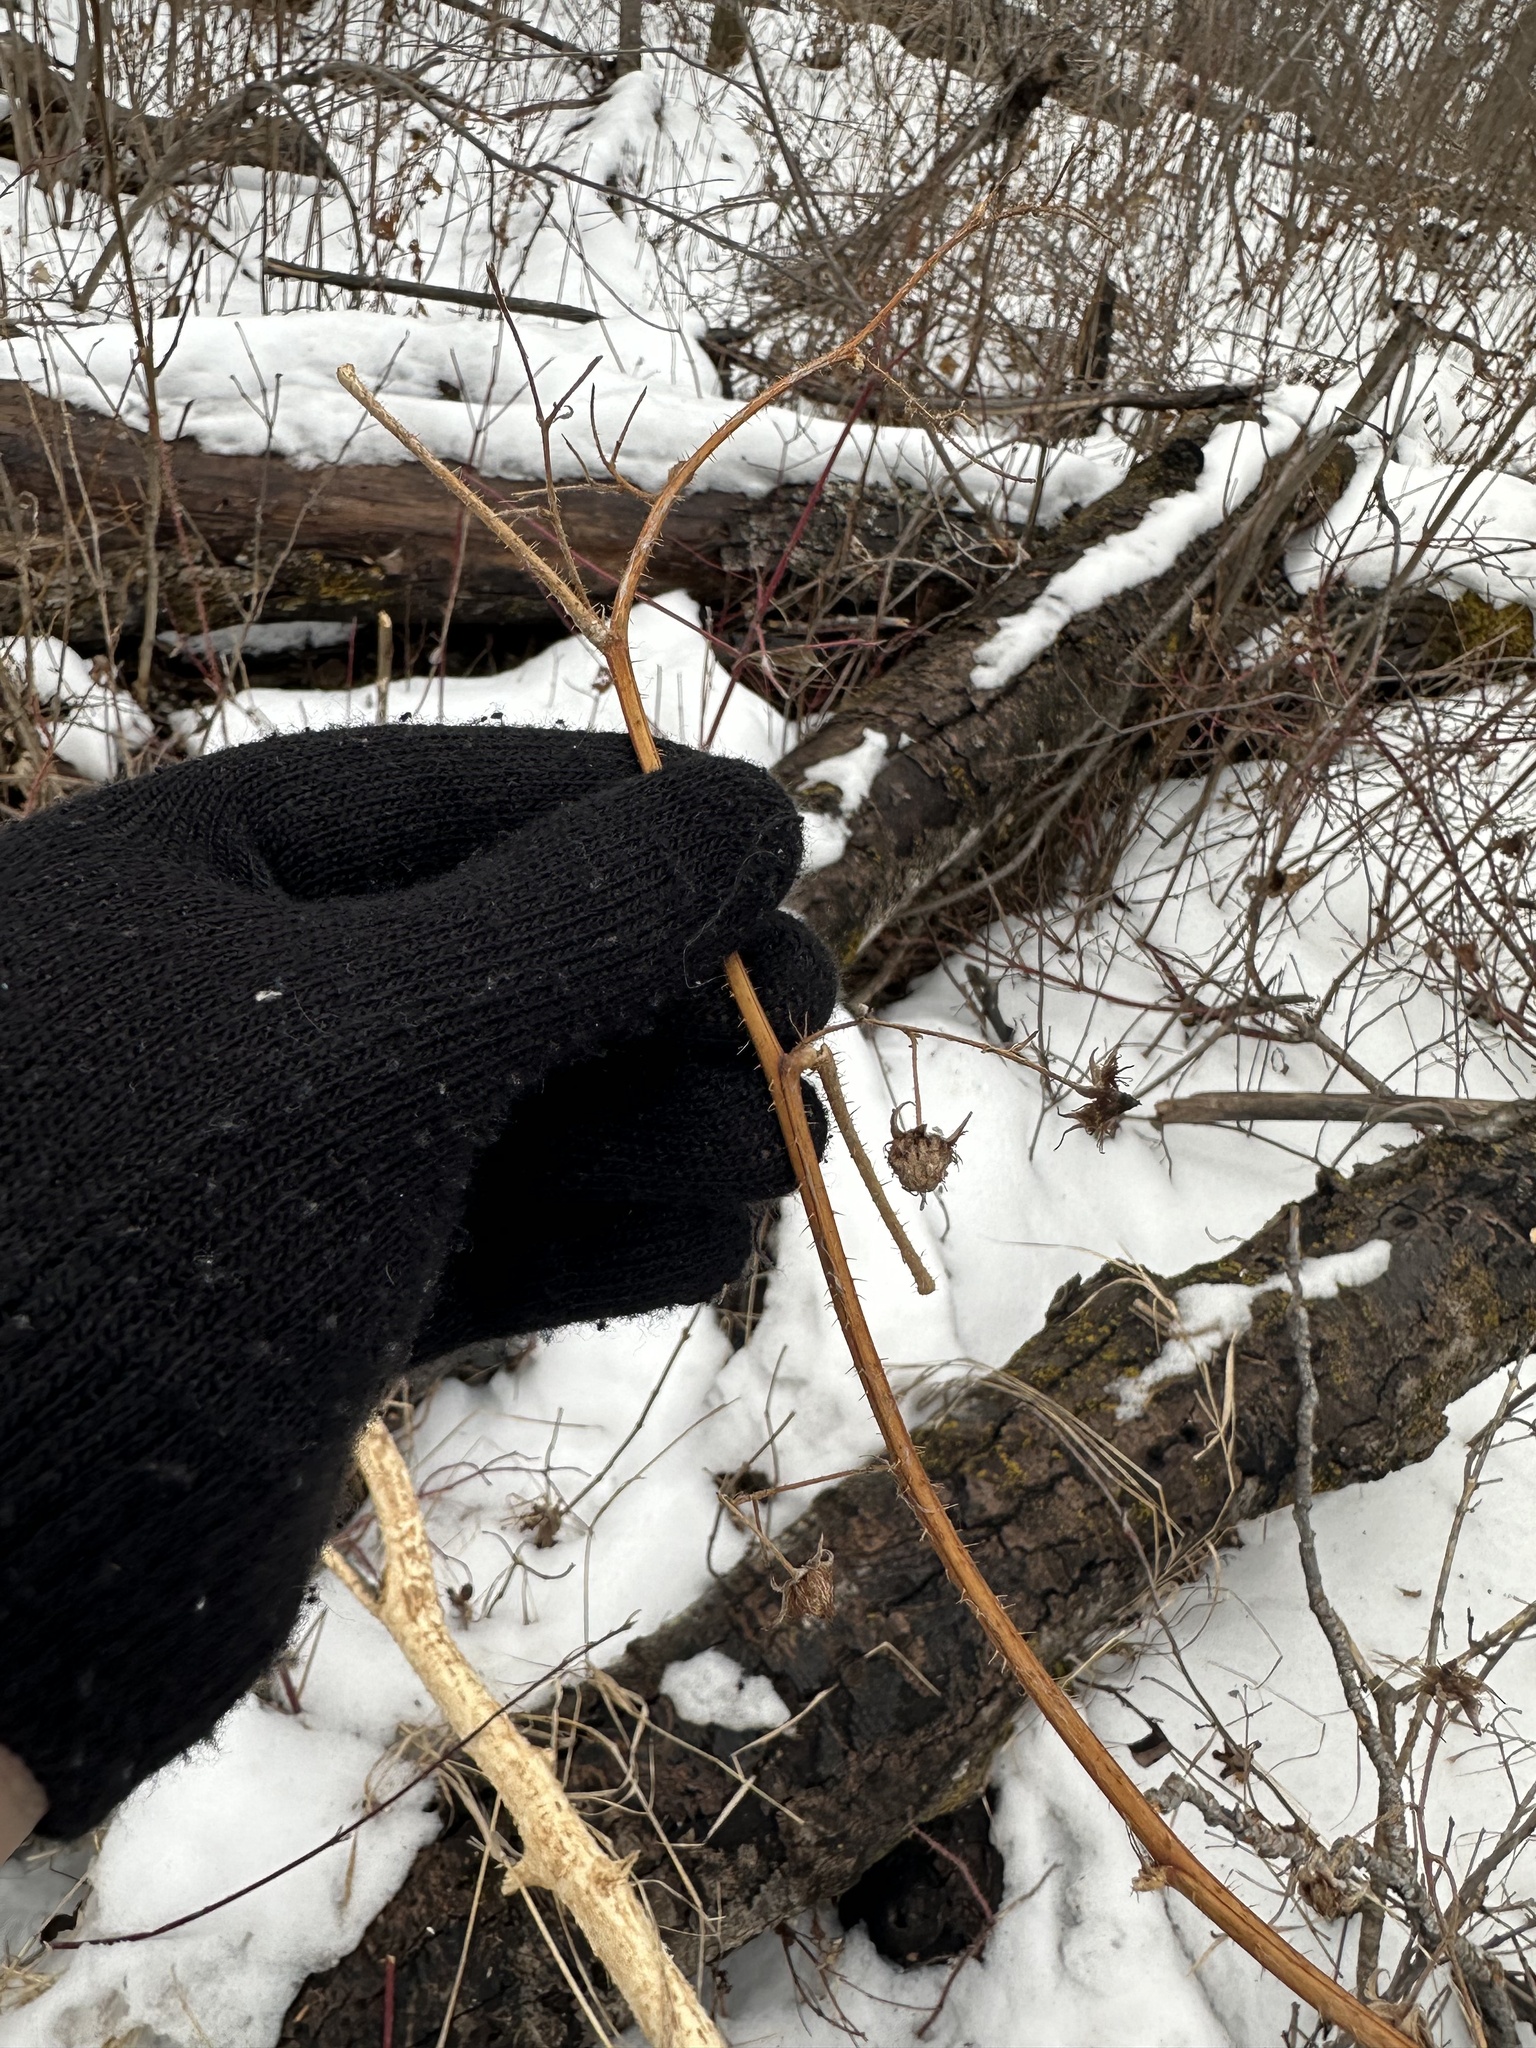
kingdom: Plantae
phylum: Tracheophyta
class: Magnoliopsida
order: Rosales
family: Rosaceae
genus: Rubus
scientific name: Rubus idaeus
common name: Raspberry
